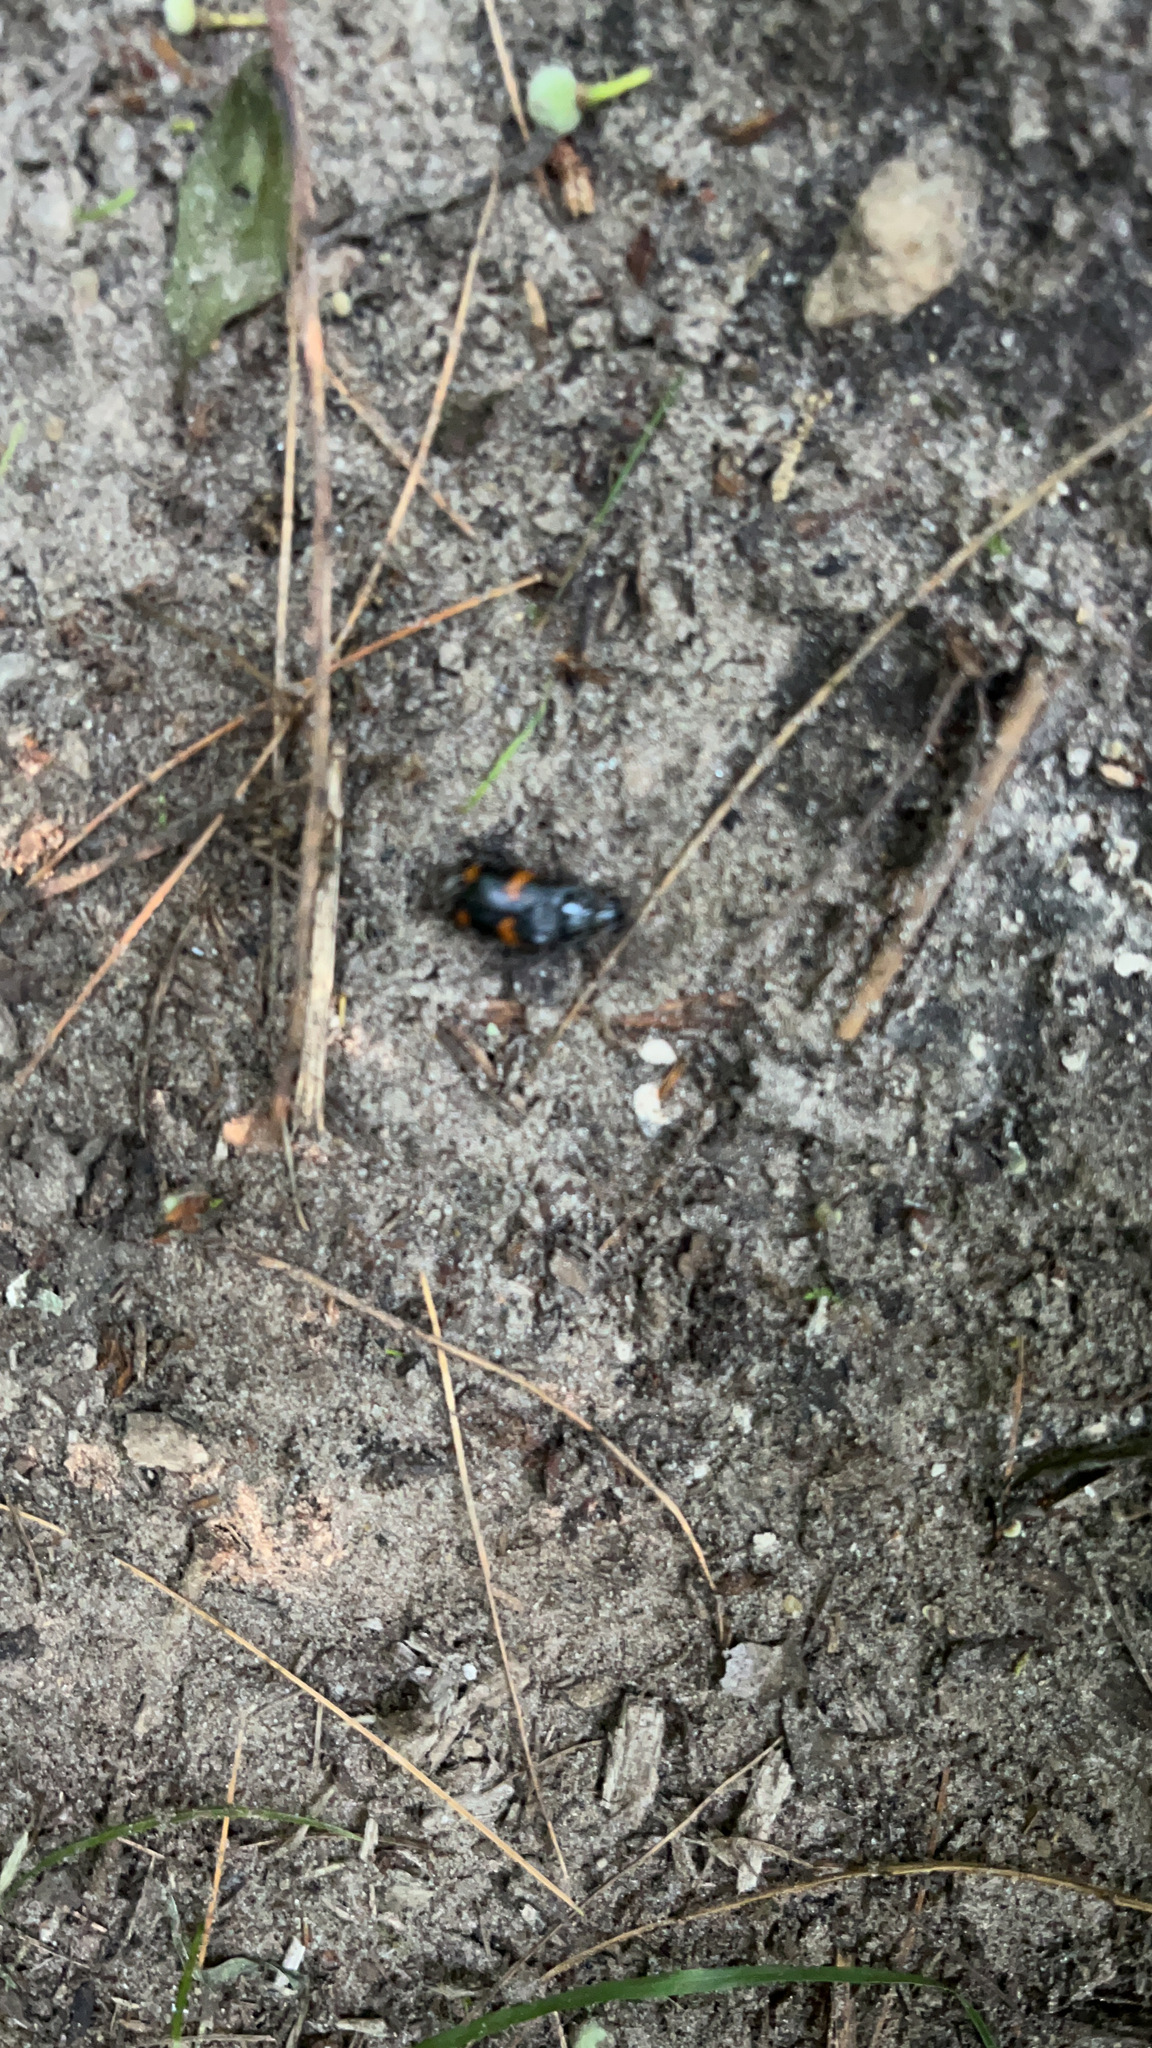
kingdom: Animalia
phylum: Arthropoda
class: Insecta
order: Coleoptera
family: Staphylinidae
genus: Nicrophorus
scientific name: Nicrophorus orbicollis
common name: Roundneck sexton beetle
